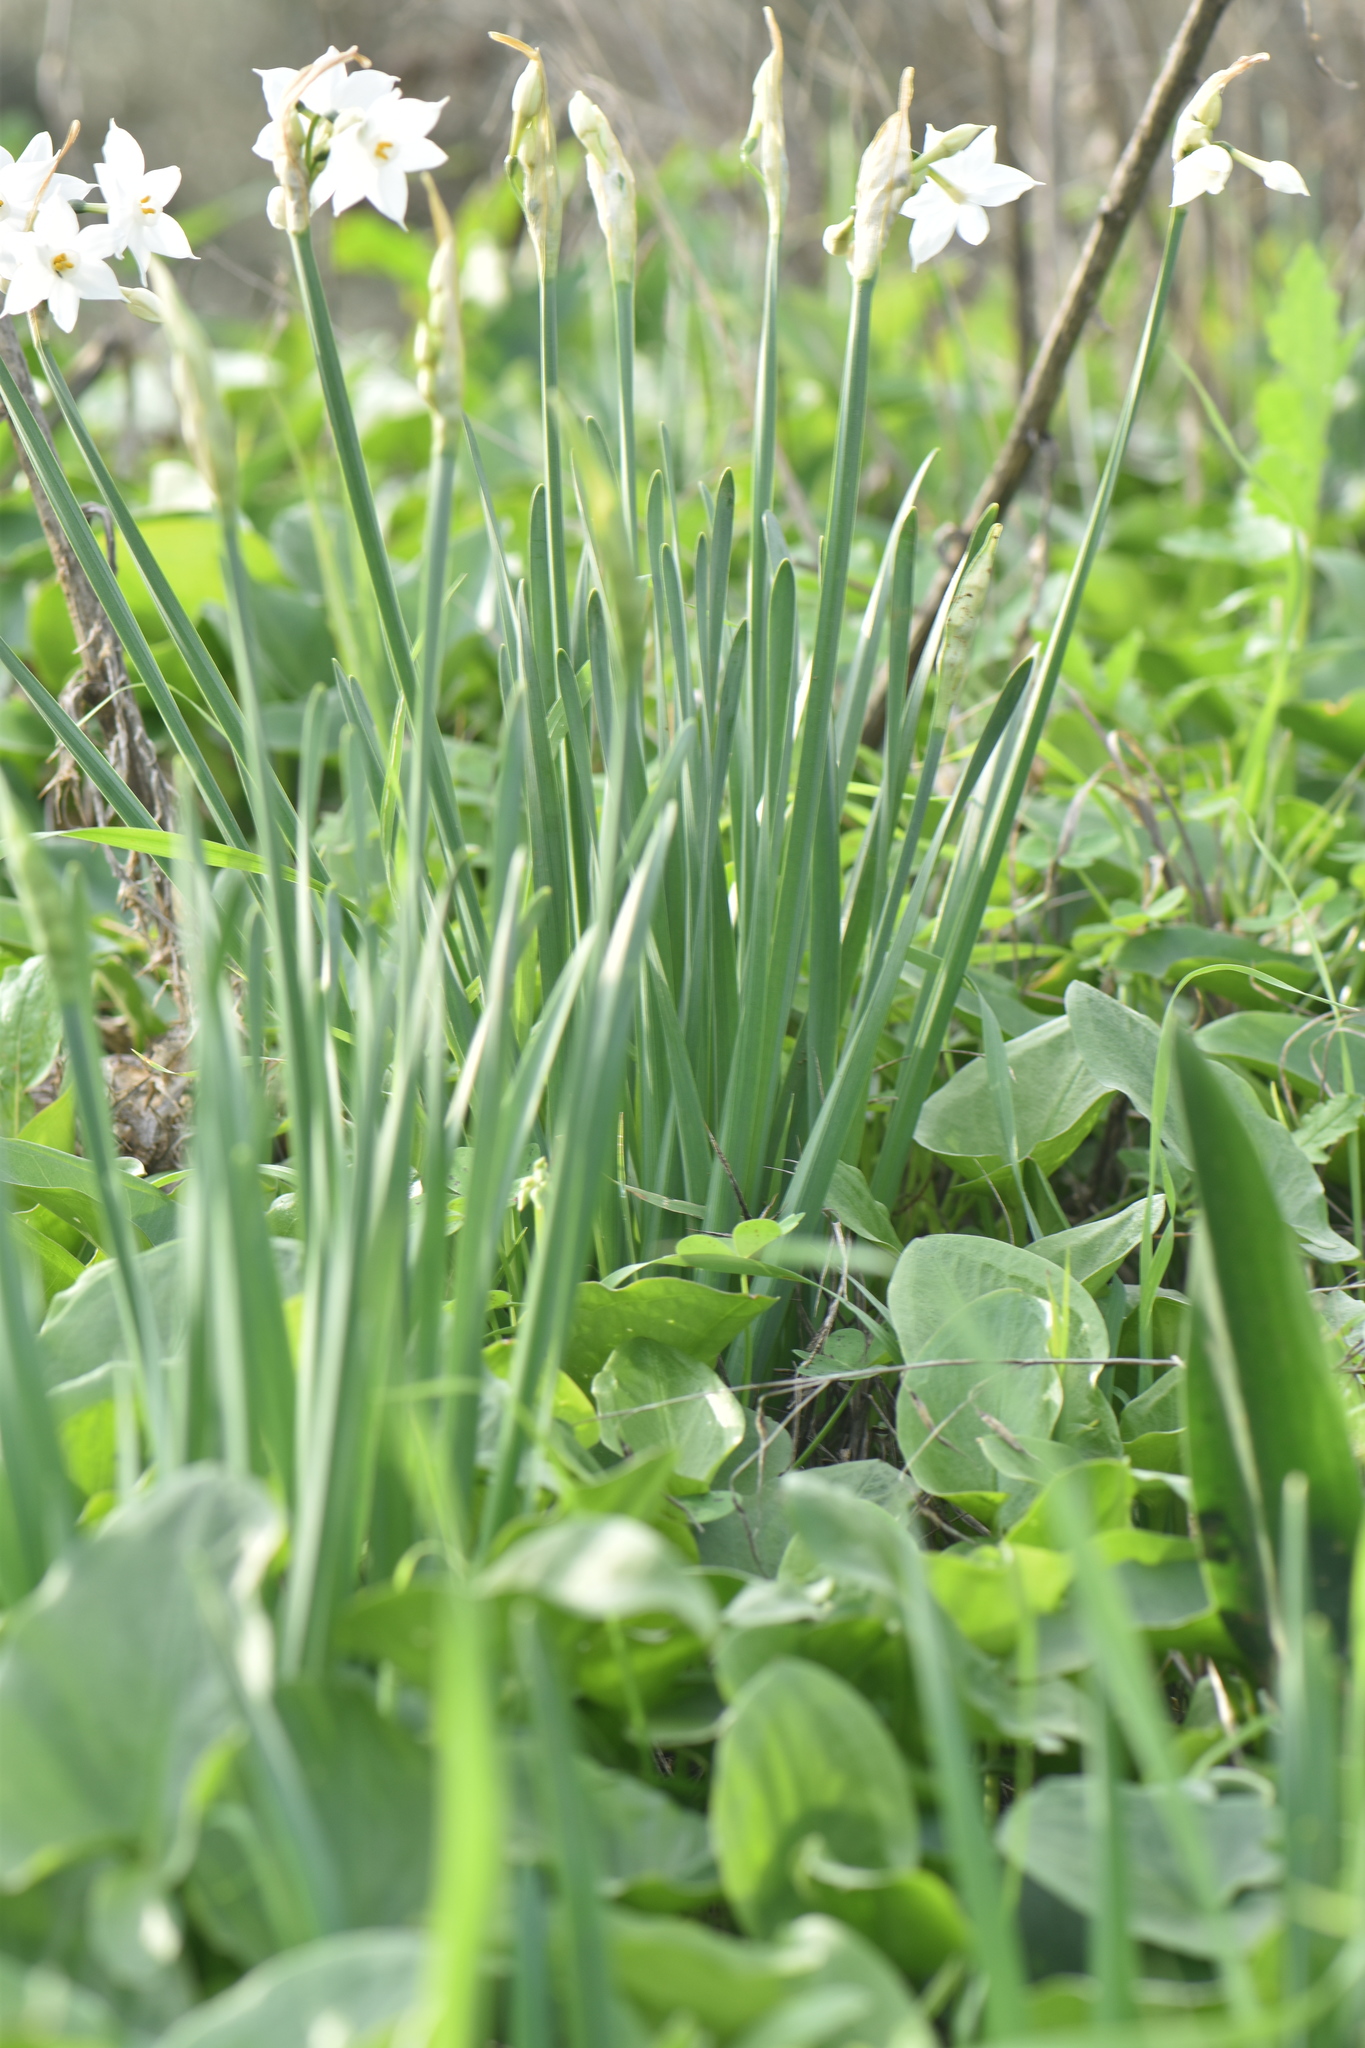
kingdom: Plantae
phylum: Tracheophyta
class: Liliopsida
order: Asparagales
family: Amaryllidaceae
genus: Narcissus
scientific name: Narcissus papyraceus
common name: Paper-white daffodil
